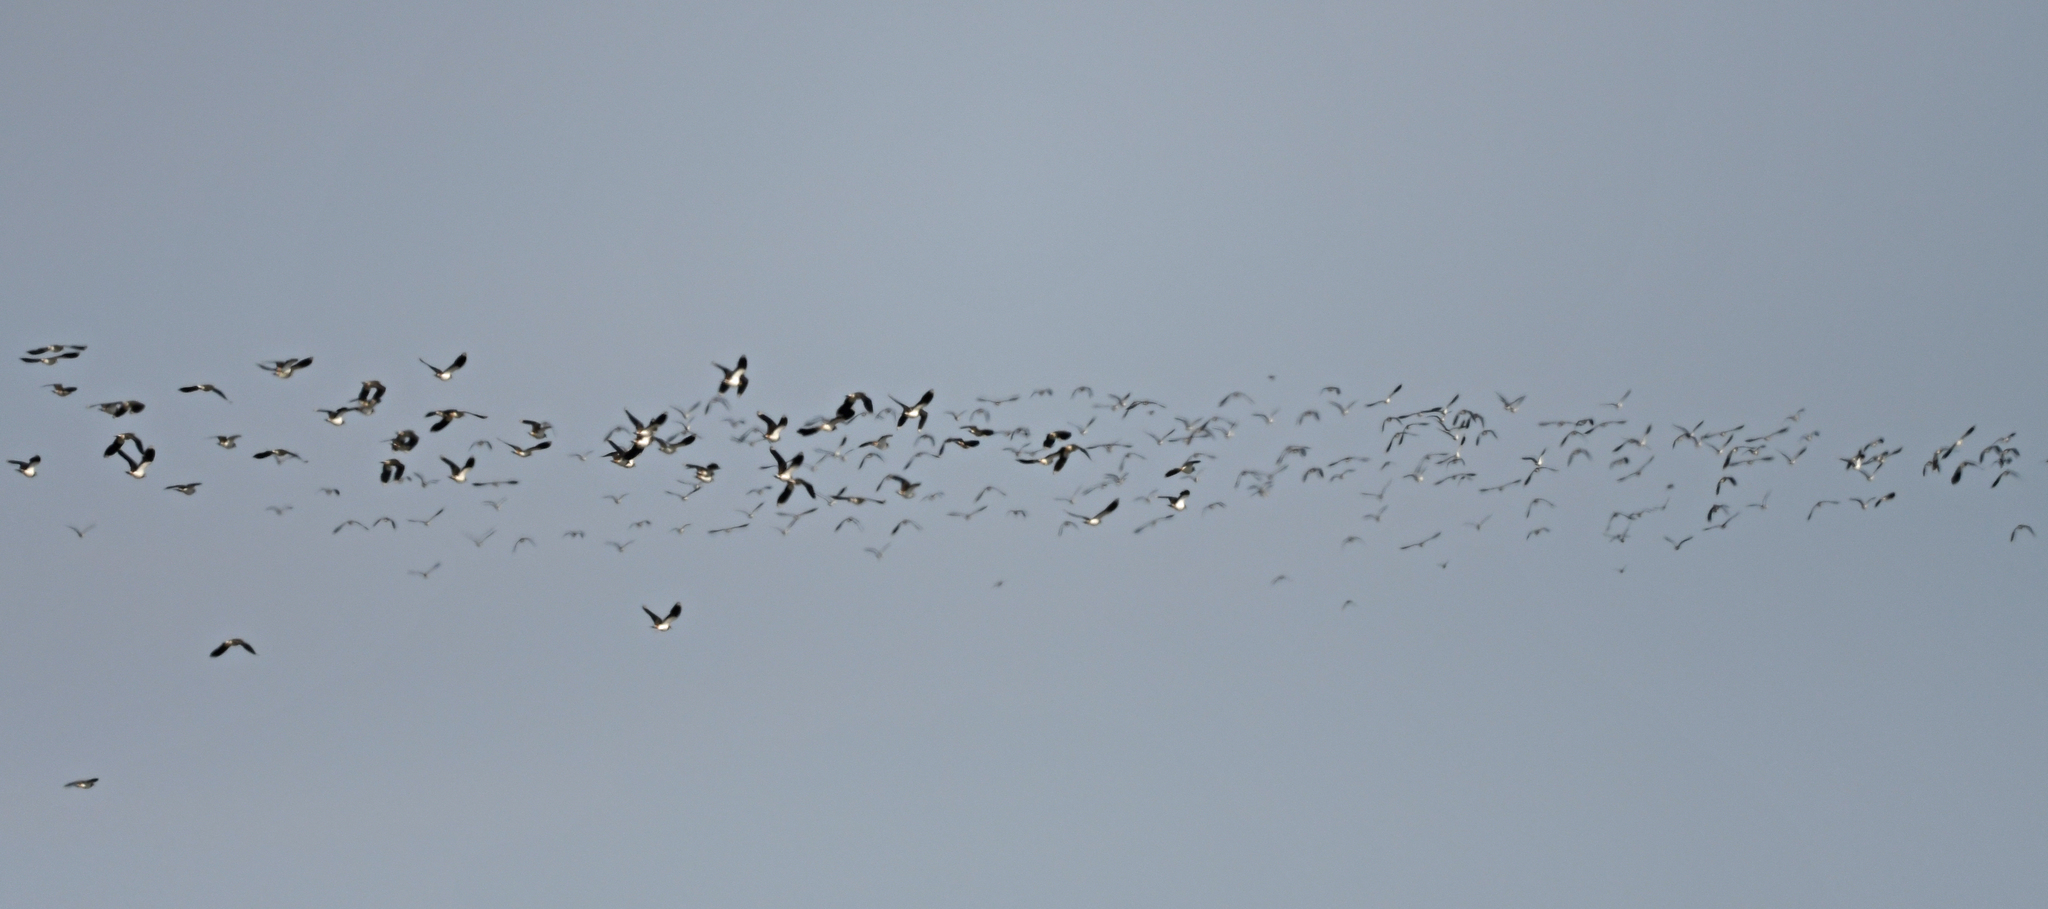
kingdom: Animalia
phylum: Chordata
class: Aves
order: Charadriiformes
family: Charadriidae
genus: Vanellus
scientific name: Vanellus vanellus
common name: Northern lapwing
